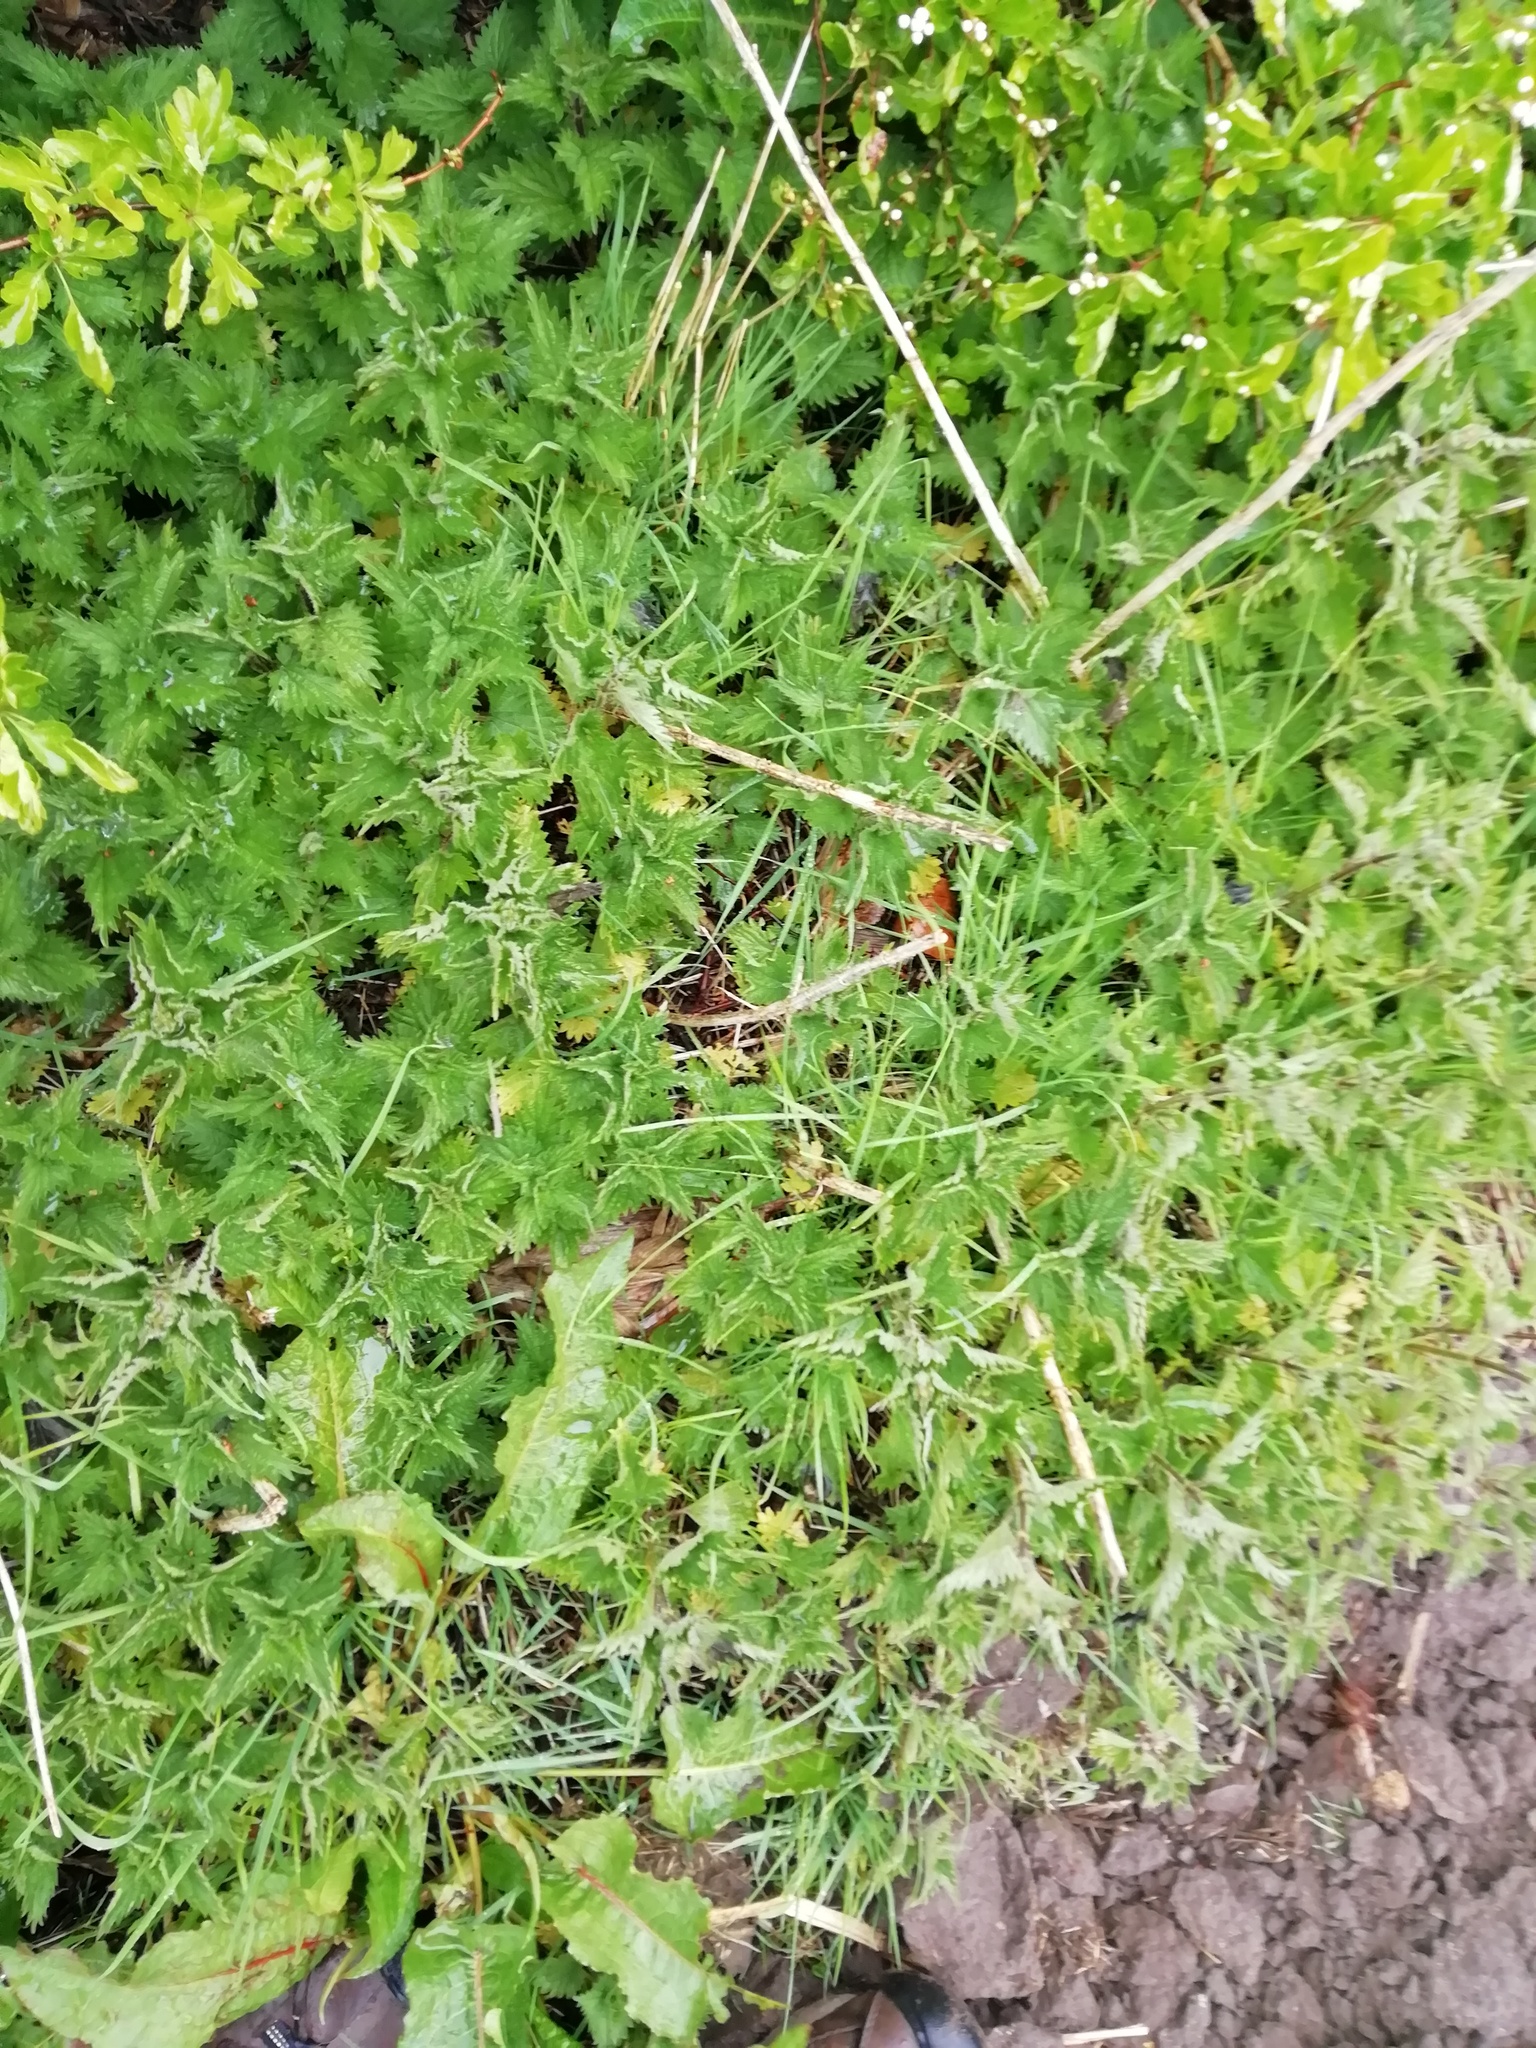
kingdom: Plantae
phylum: Tracheophyta
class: Magnoliopsida
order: Rosales
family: Urticaceae
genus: Urtica
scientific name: Urtica dioica
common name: Common nettle
